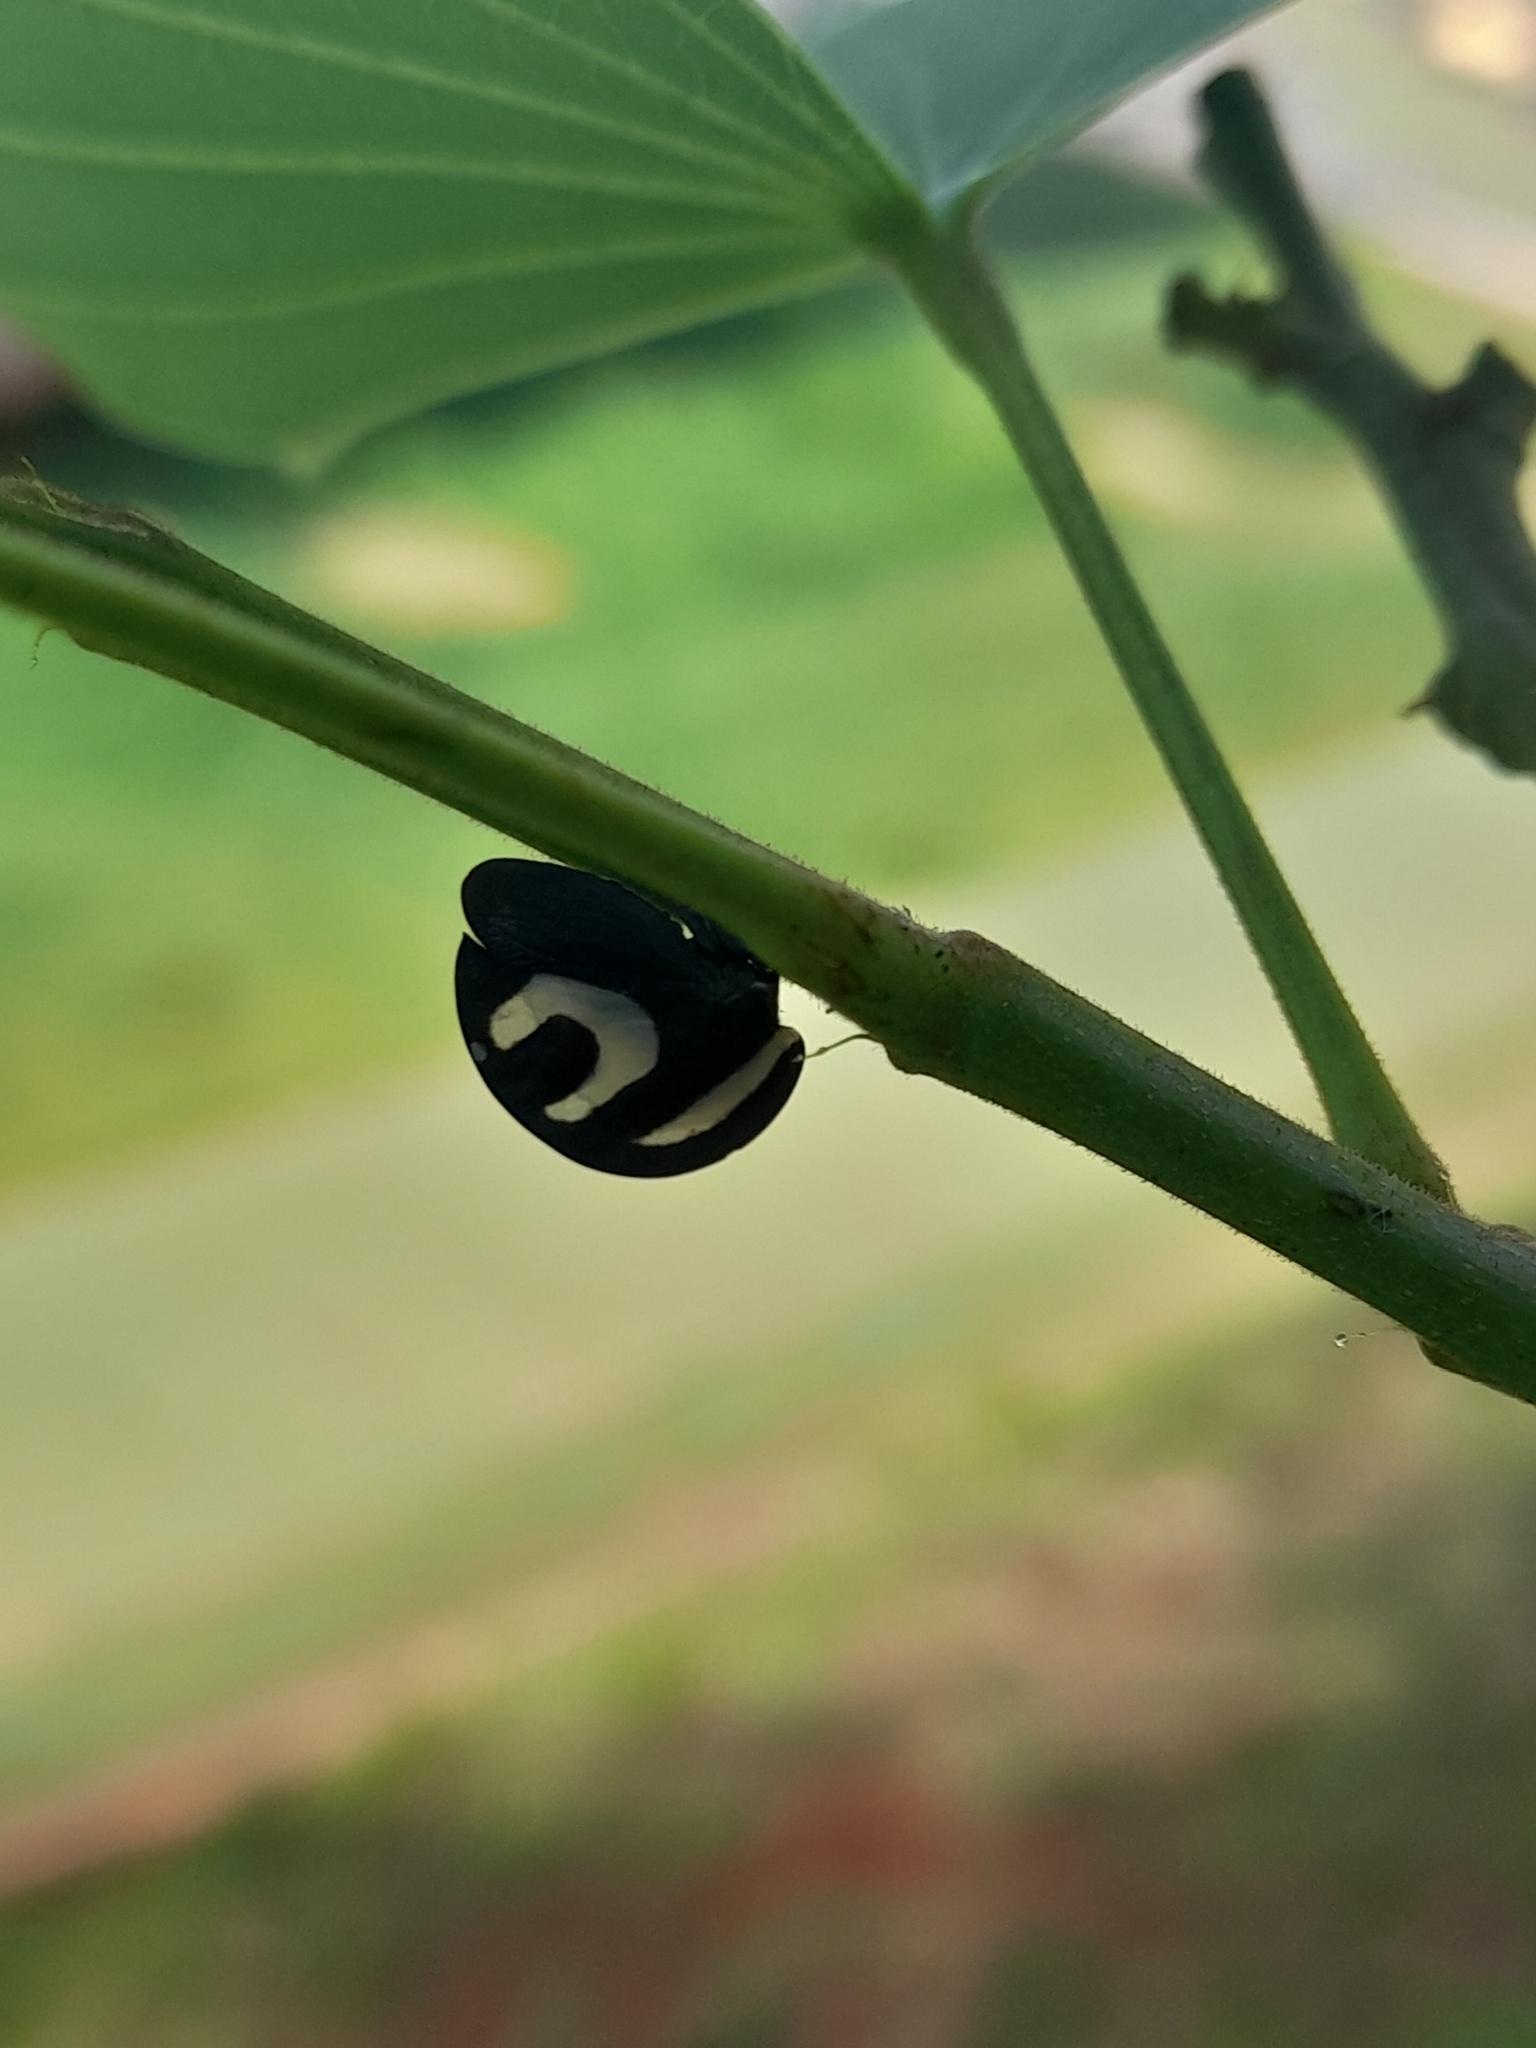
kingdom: Animalia
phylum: Arthropoda
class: Insecta
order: Hemiptera
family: Membracidae
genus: Membracis
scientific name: Membracis foliatafasciata
